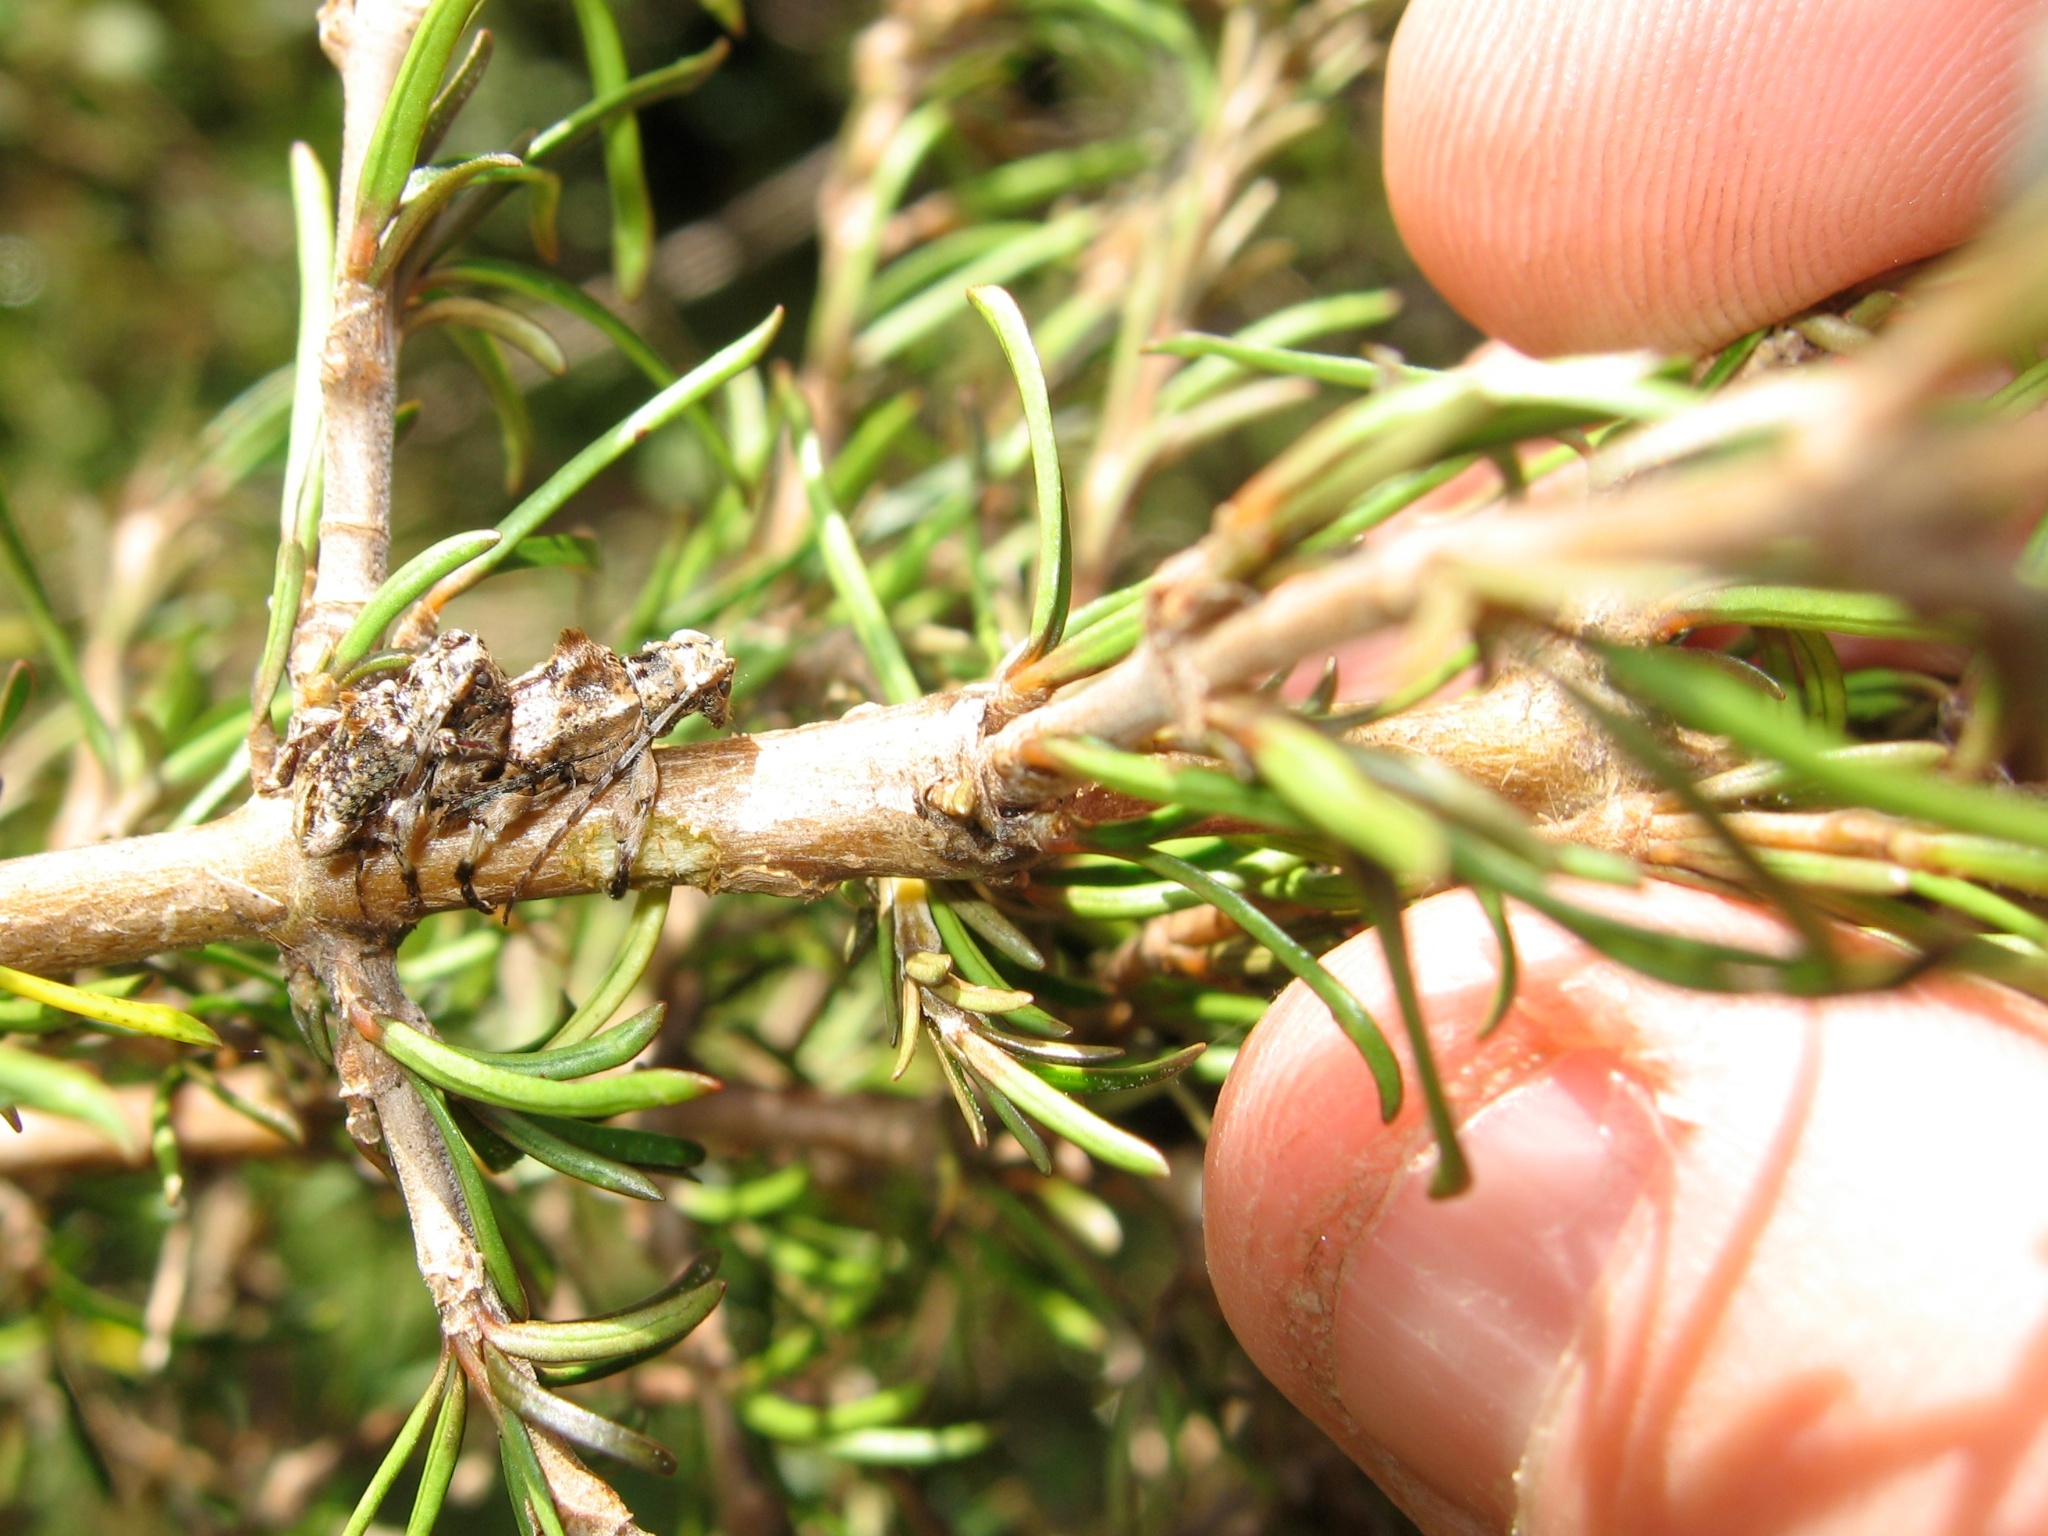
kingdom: Animalia
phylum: Arthropoda
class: Insecta
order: Coleoptera
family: Cerambycidae
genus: Hybolasius
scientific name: Hybolasius cristus
